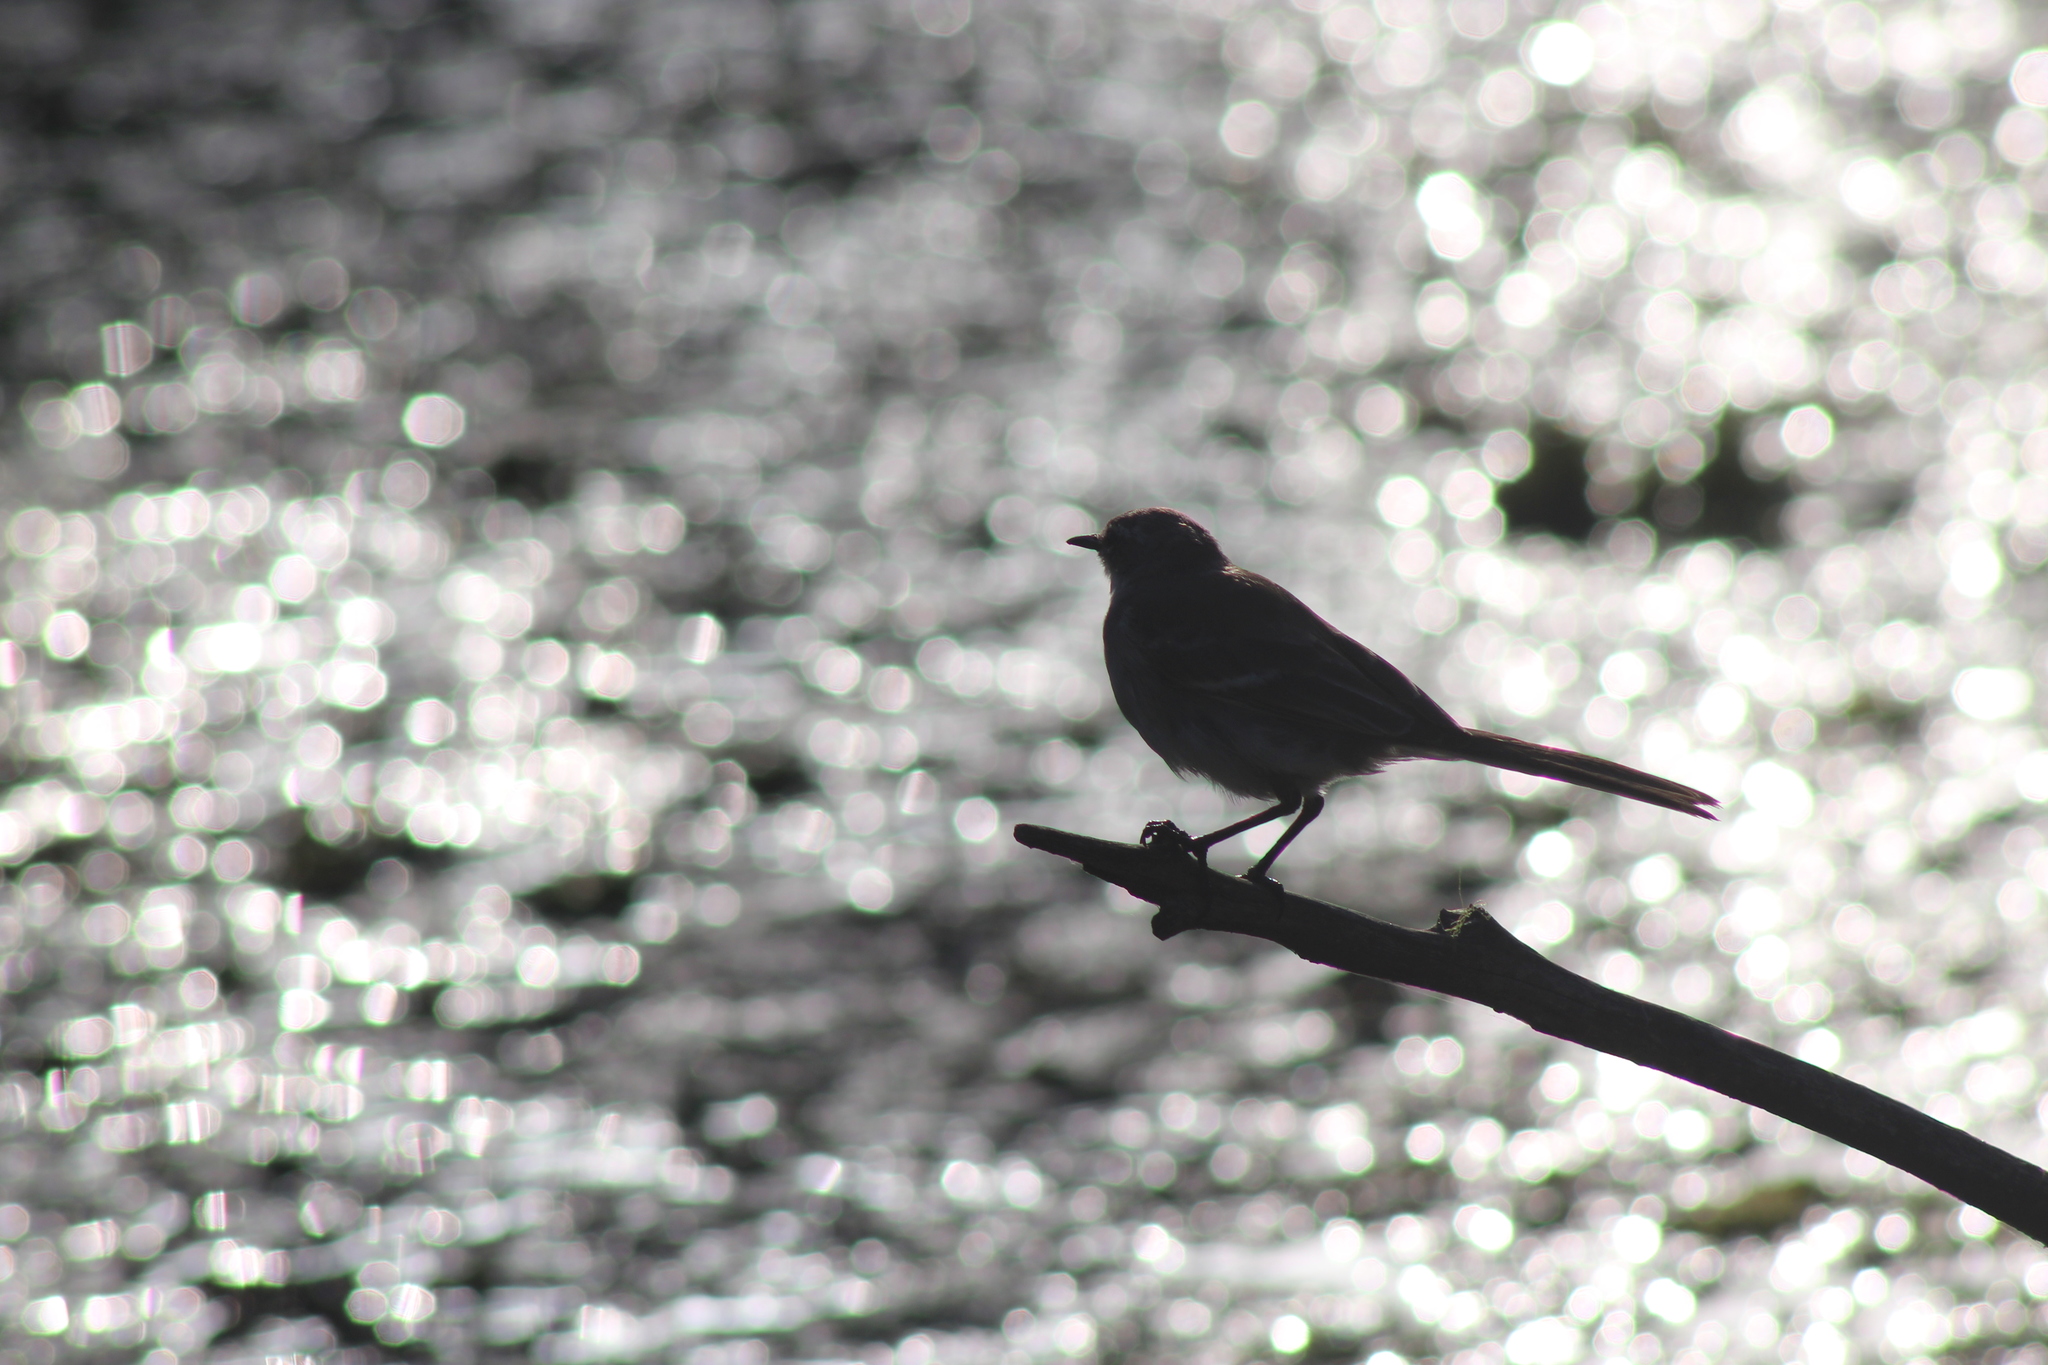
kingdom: Animalia
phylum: Chordata
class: Aves
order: Passeriformes
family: Motacillidae
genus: Motacilla
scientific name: Motacilla capensis
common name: Cape wagtail
